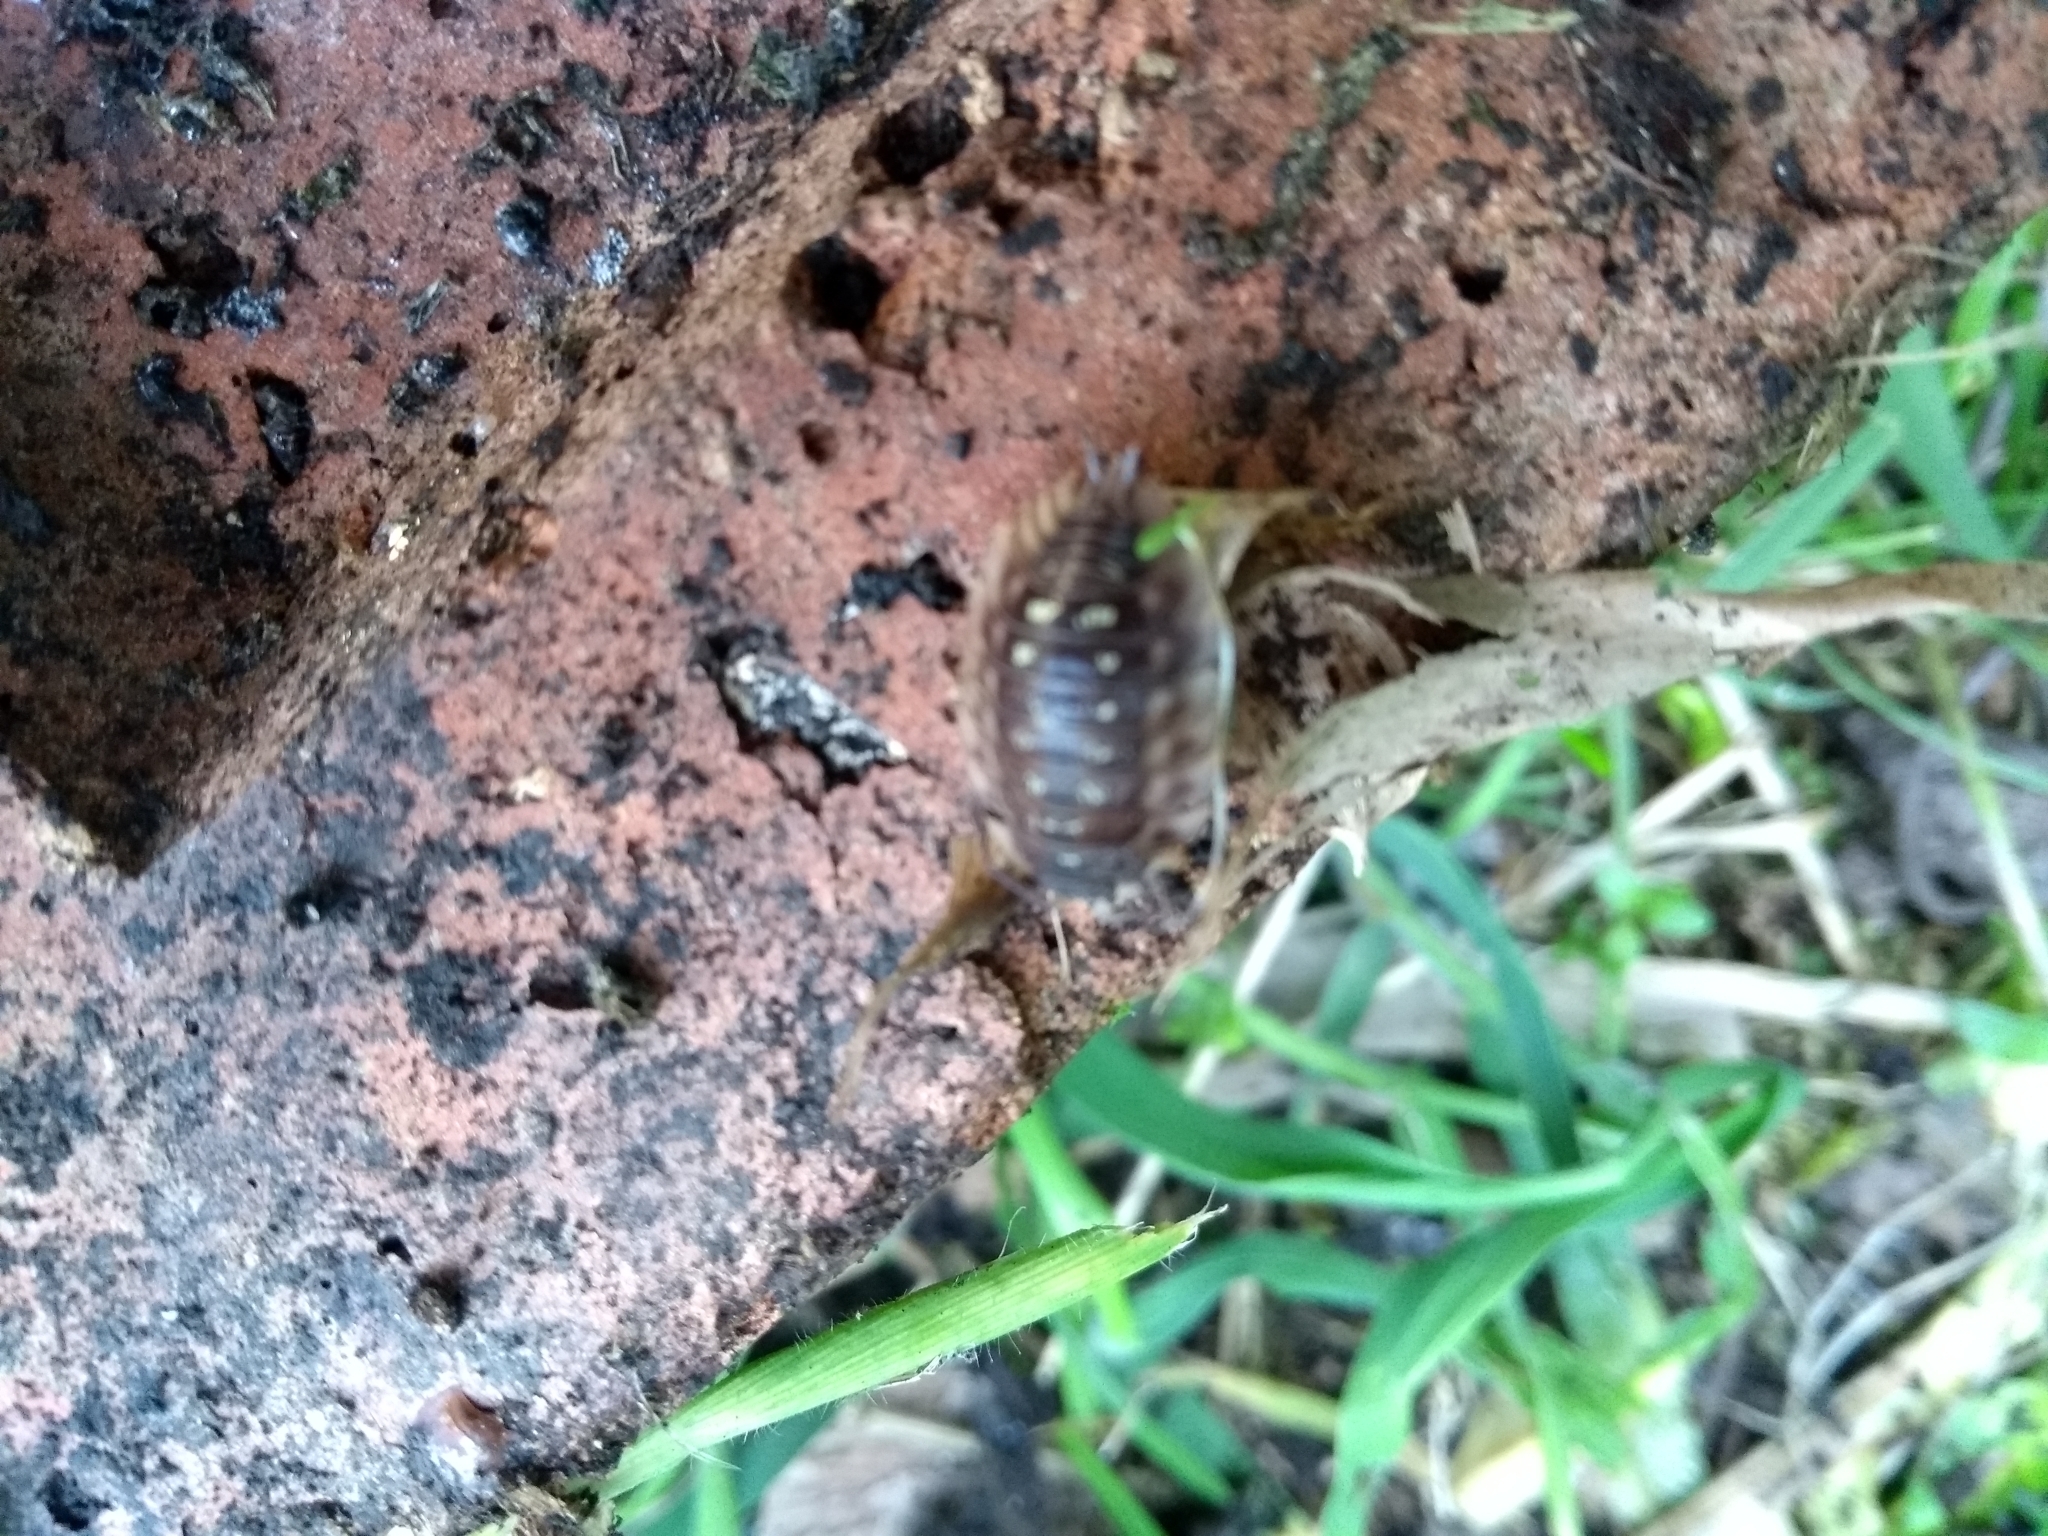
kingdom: Animalia
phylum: Arthropoda
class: Malacostraca
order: Isopoda
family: Oniscidae
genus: Oniscus
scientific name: Oniscus asellus
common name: Common shiny woodlouse
